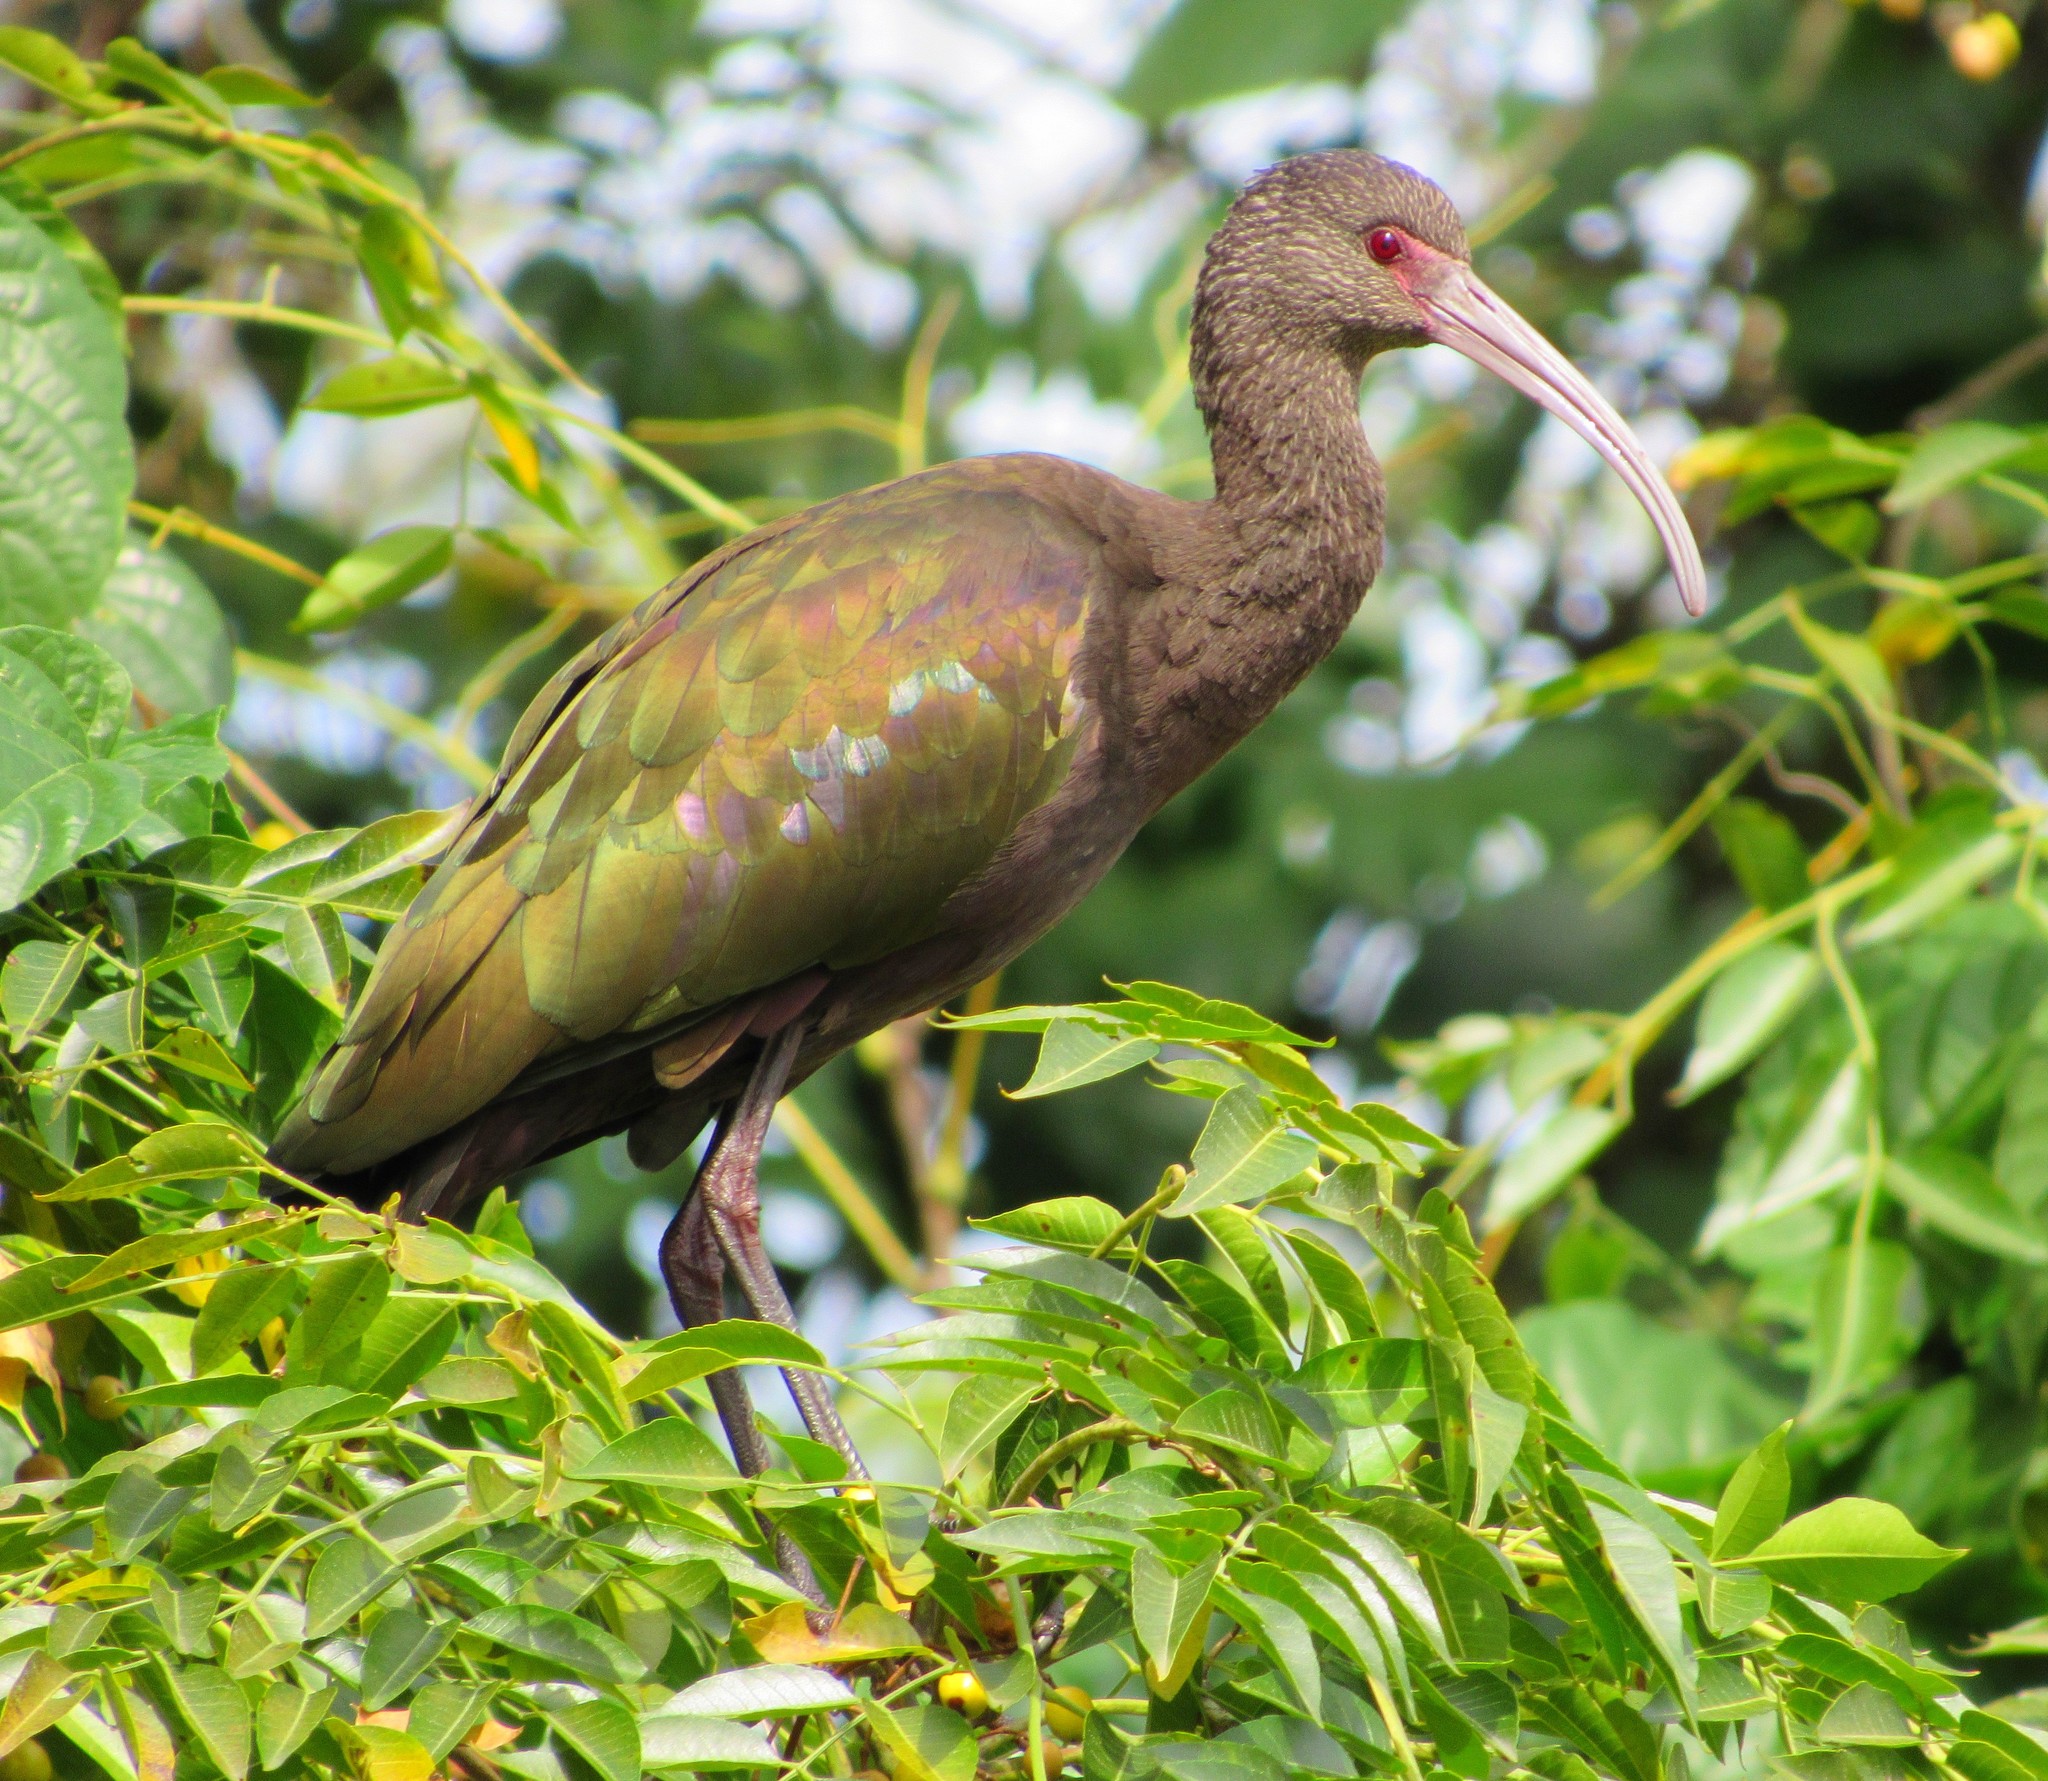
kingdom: Animalia
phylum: Chordata
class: Aves
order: Pelecaniformes
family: Threskiornithidae
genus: Plegadis
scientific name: Plegadis chihi
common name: White-faced ibis
